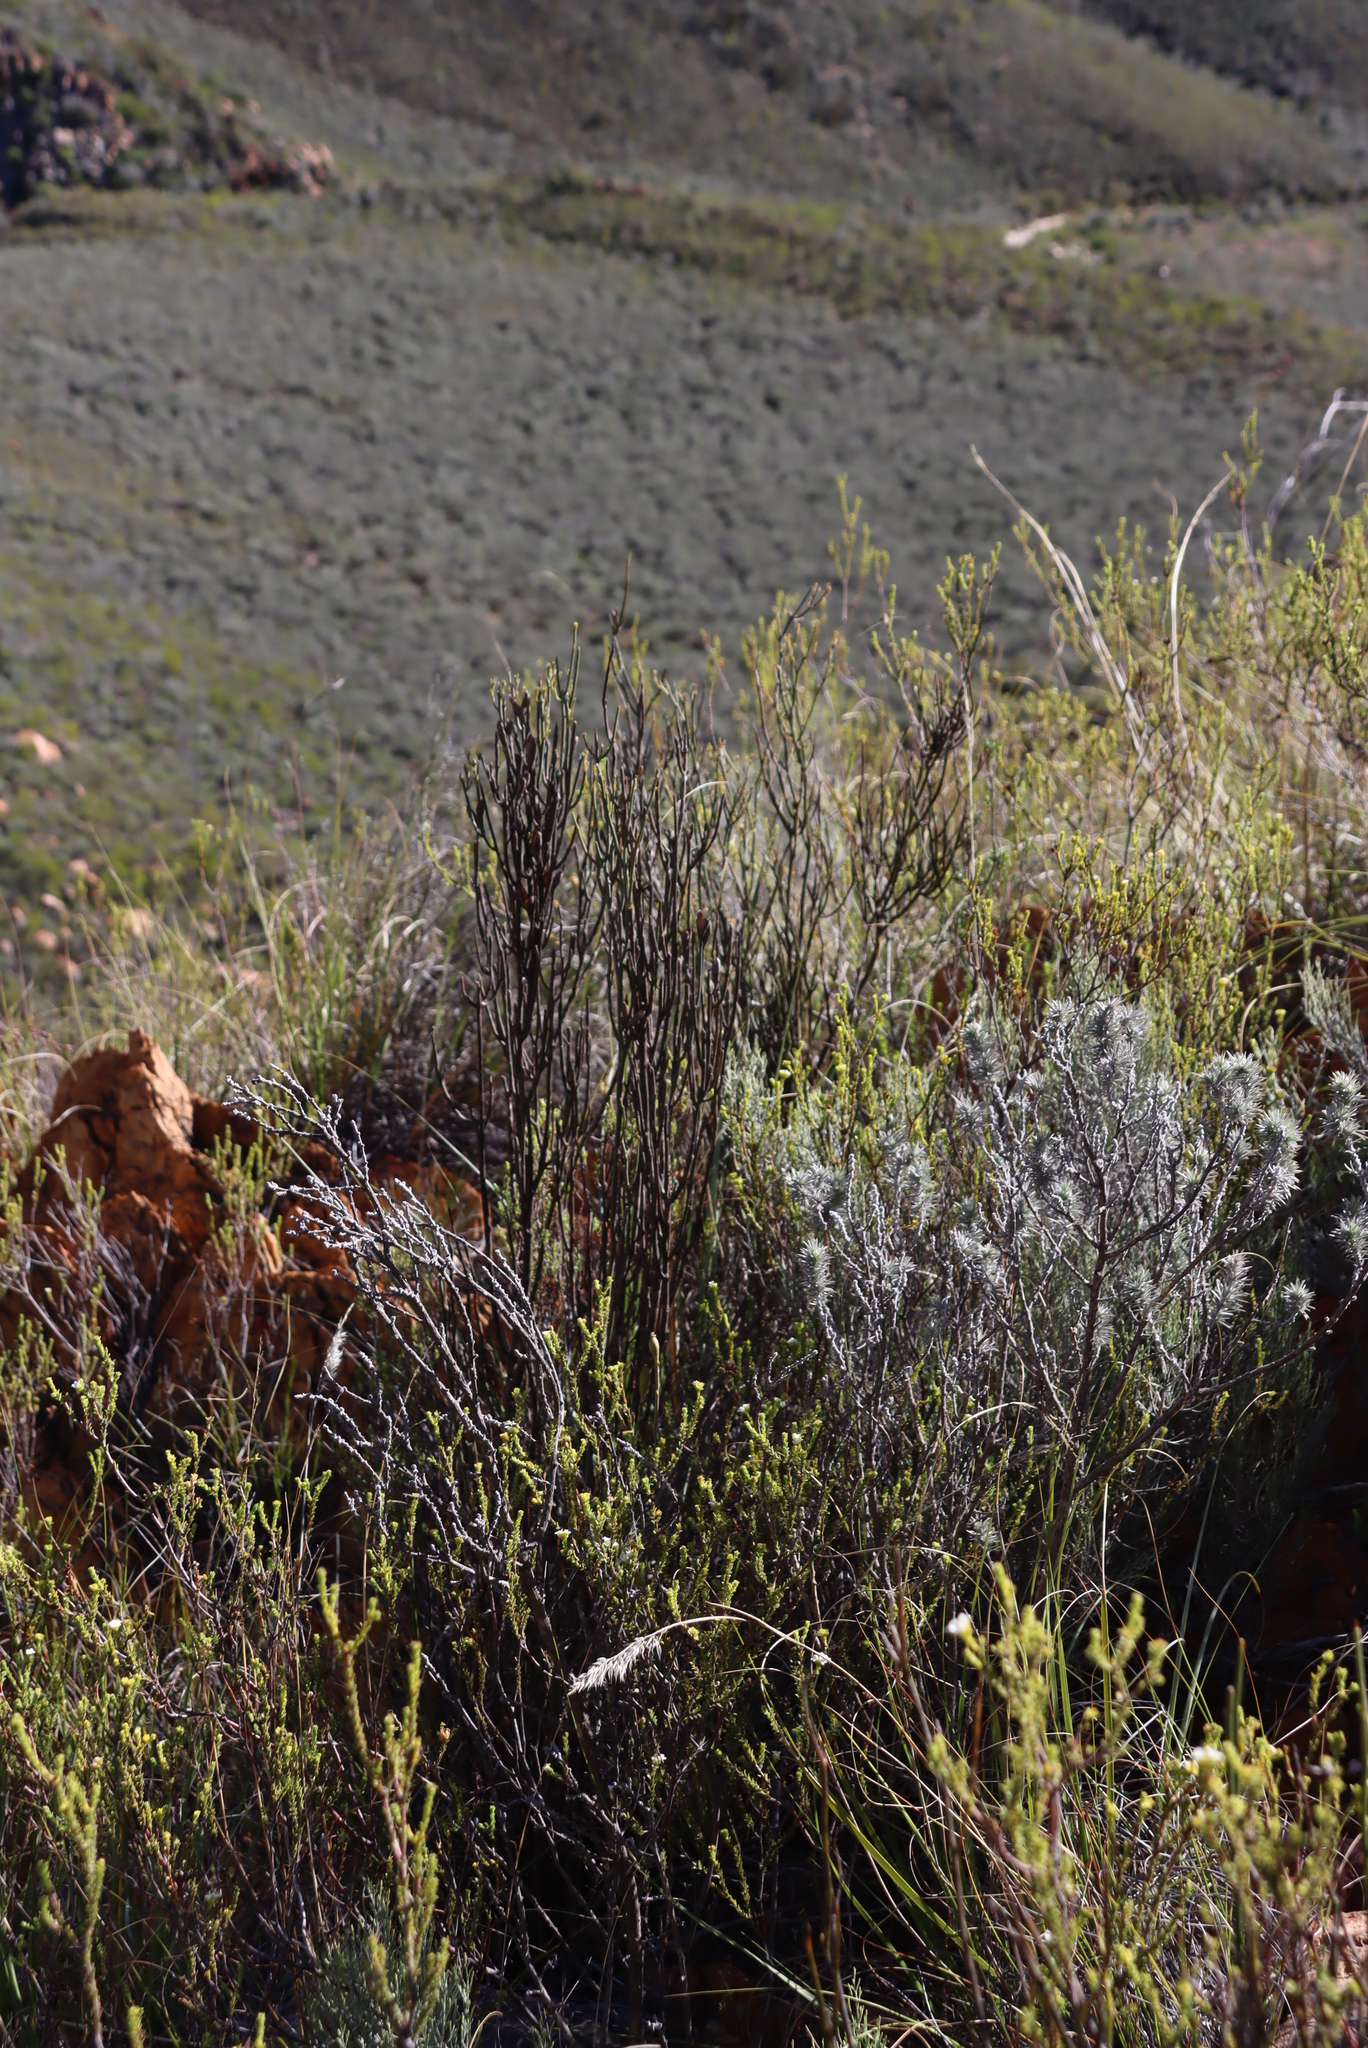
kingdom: Plantae
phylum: Tracheophyta
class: Magnoliopsida
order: Solanales
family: Montiniaceae
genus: Montinia
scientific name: Montinia caryophyllacea
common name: Wild clove-bush
